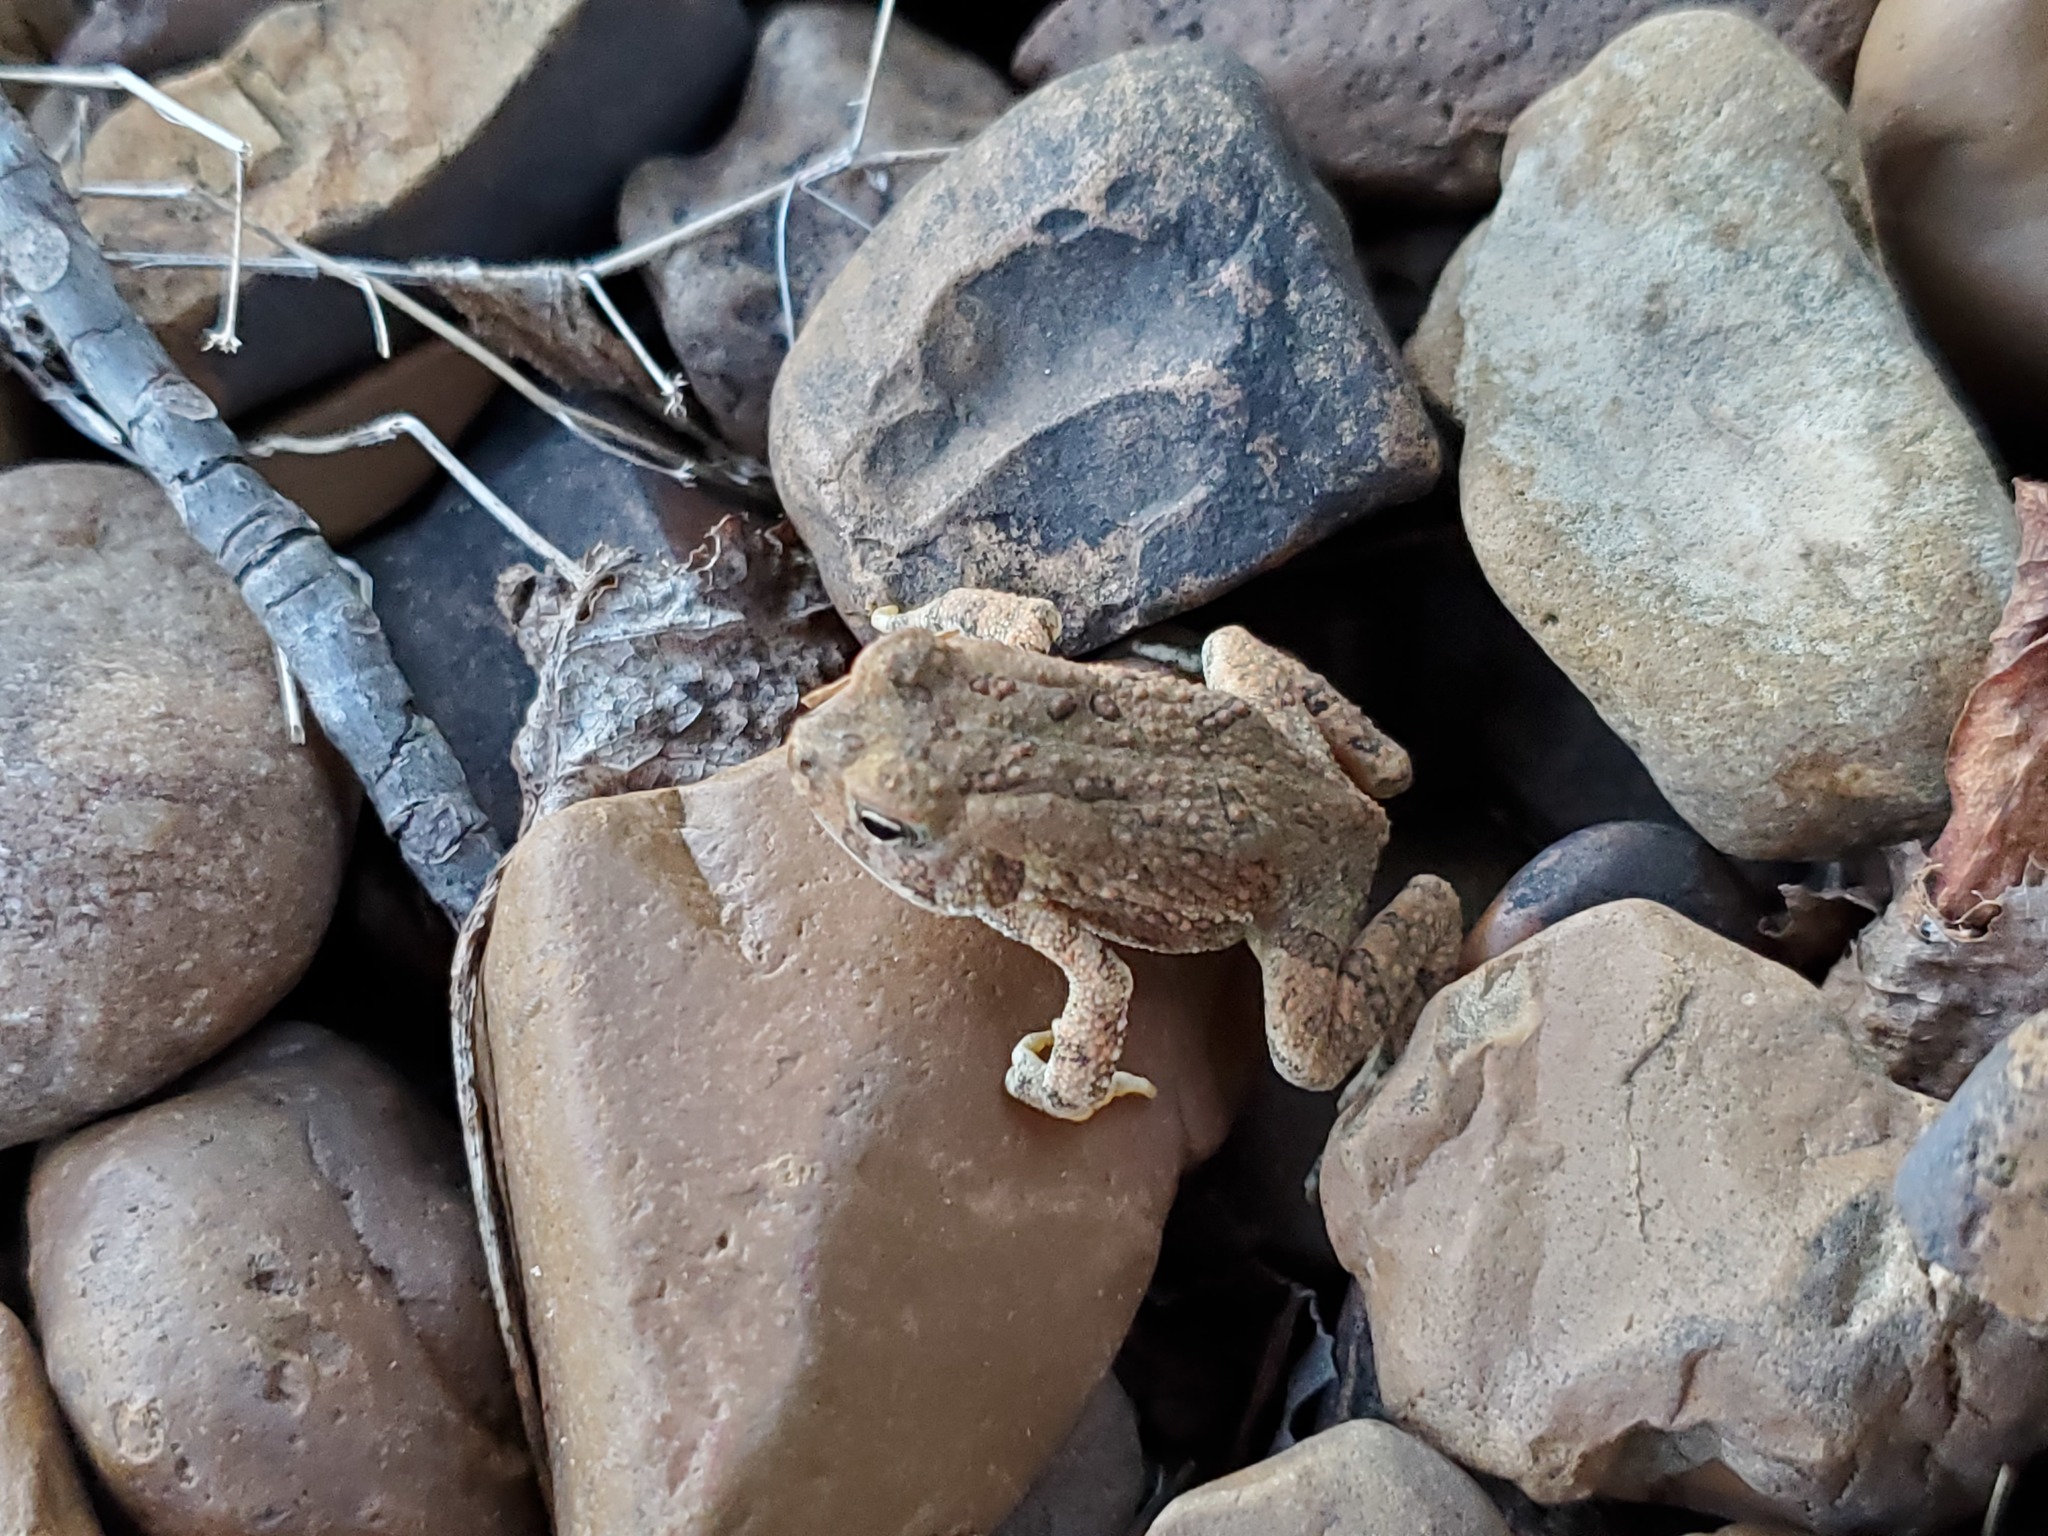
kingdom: Animalia
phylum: Chordata
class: Amphibia
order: Anura
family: Bufonidae
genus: Anaxyrus
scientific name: Anaxyrus fowleri
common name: Fowler's toad
